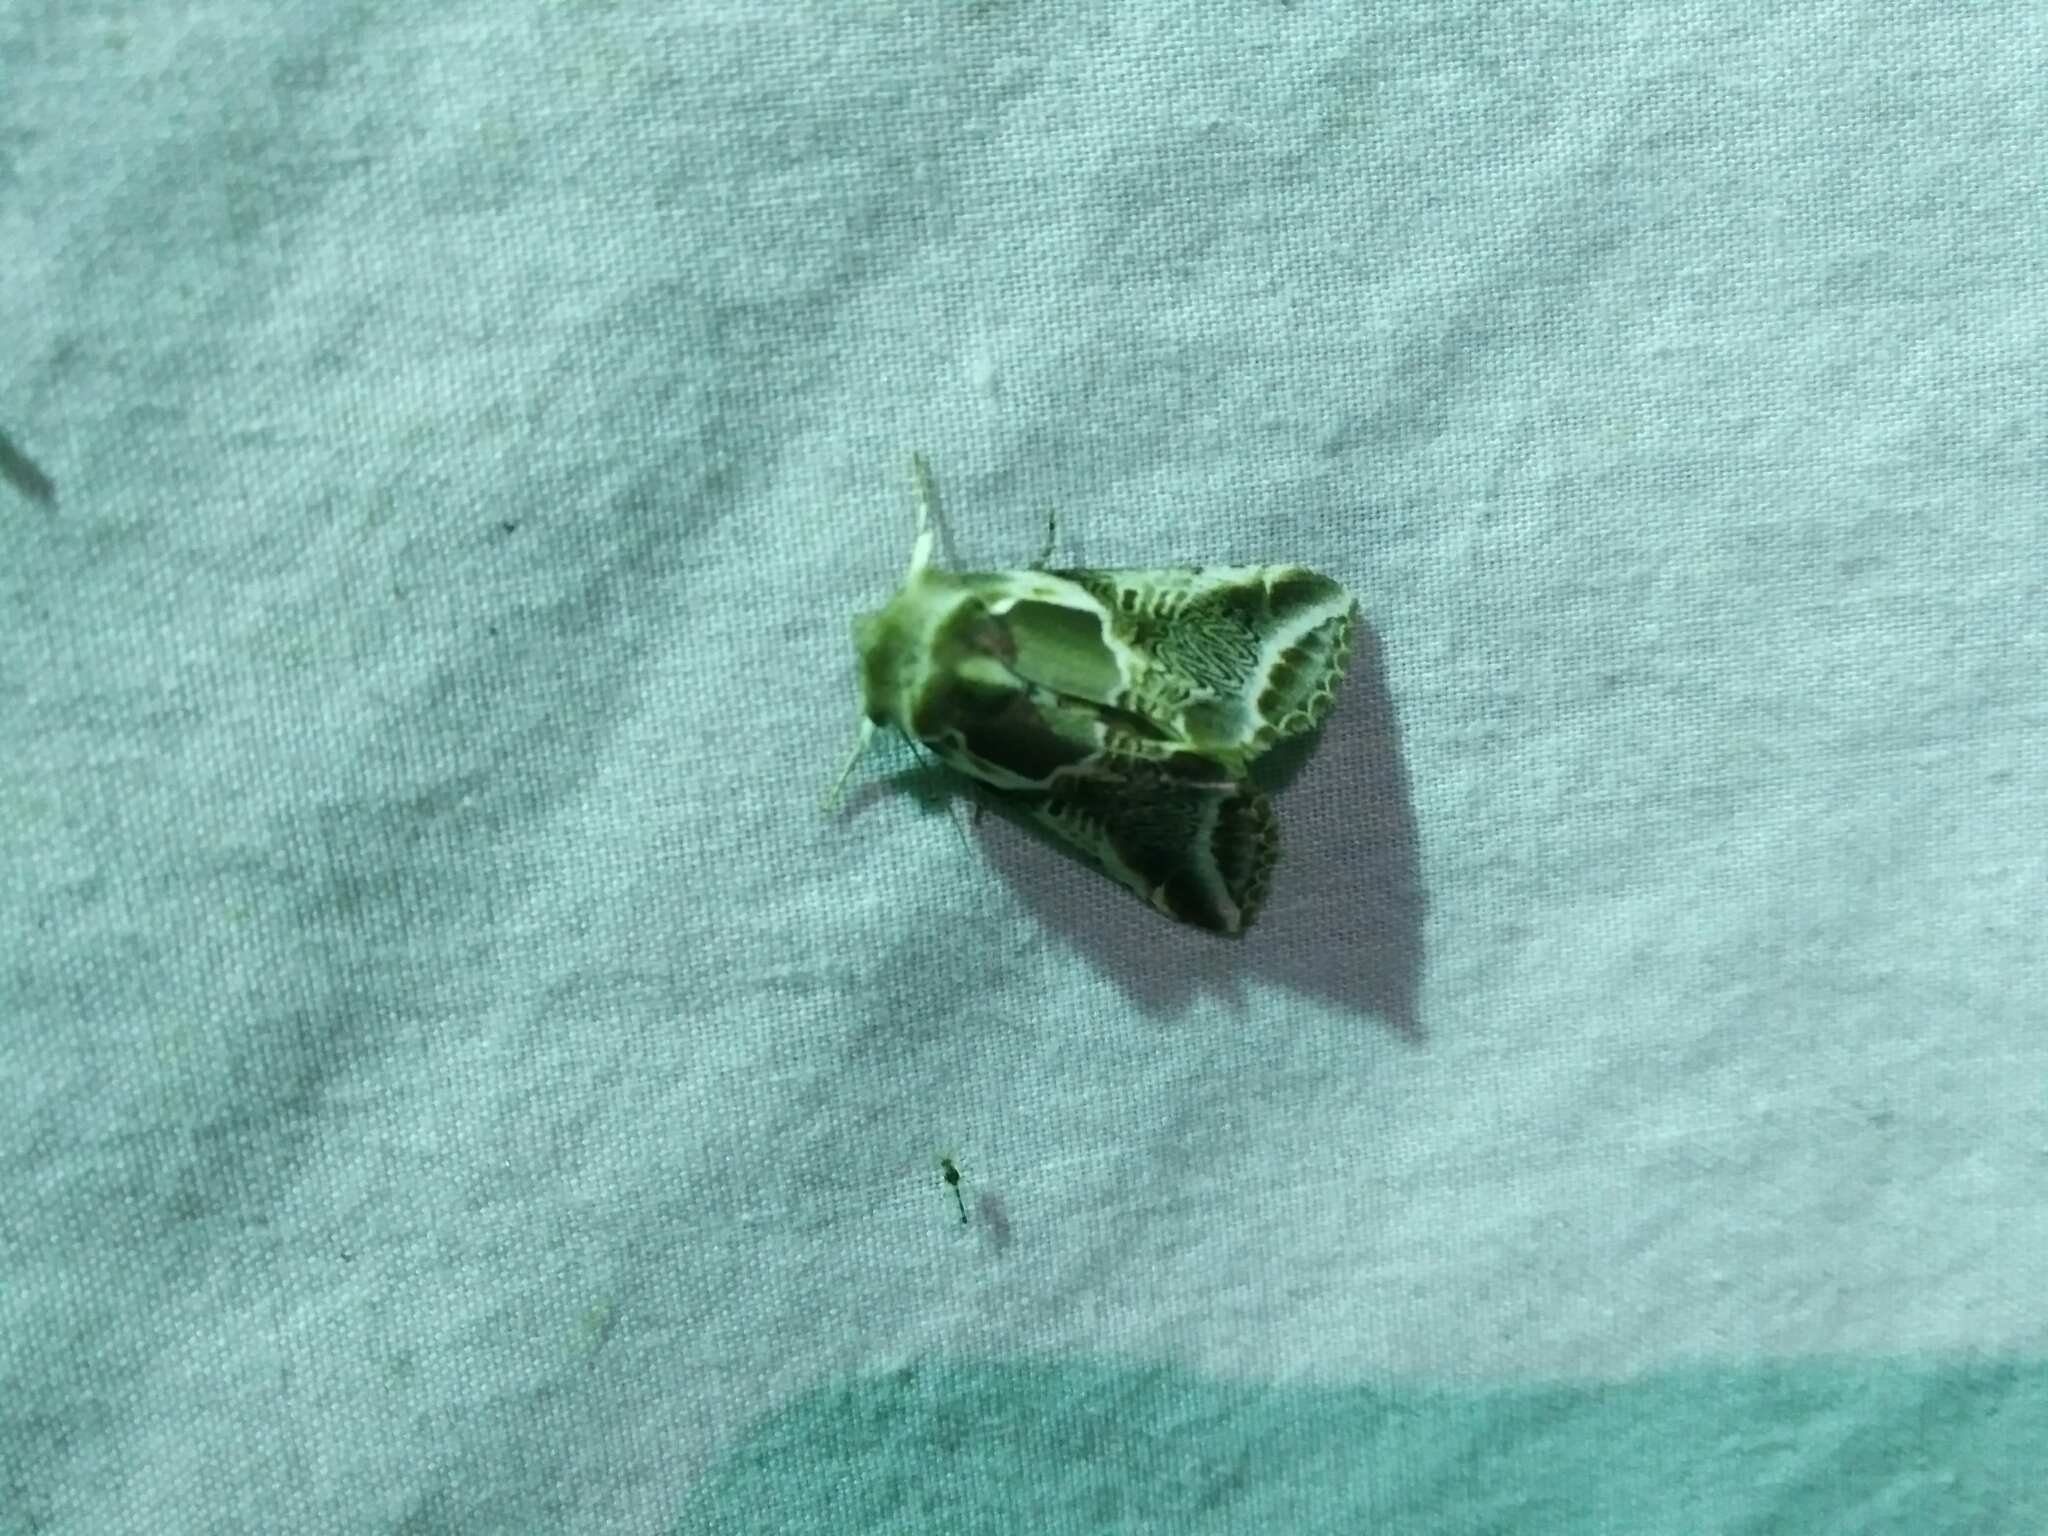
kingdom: Animalia
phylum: Arthropoda
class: Insecta
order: Lepidoptera
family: Drepanidae
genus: Habrosyne
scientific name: Habrosyne scripta
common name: Lettered habrosyne moth
